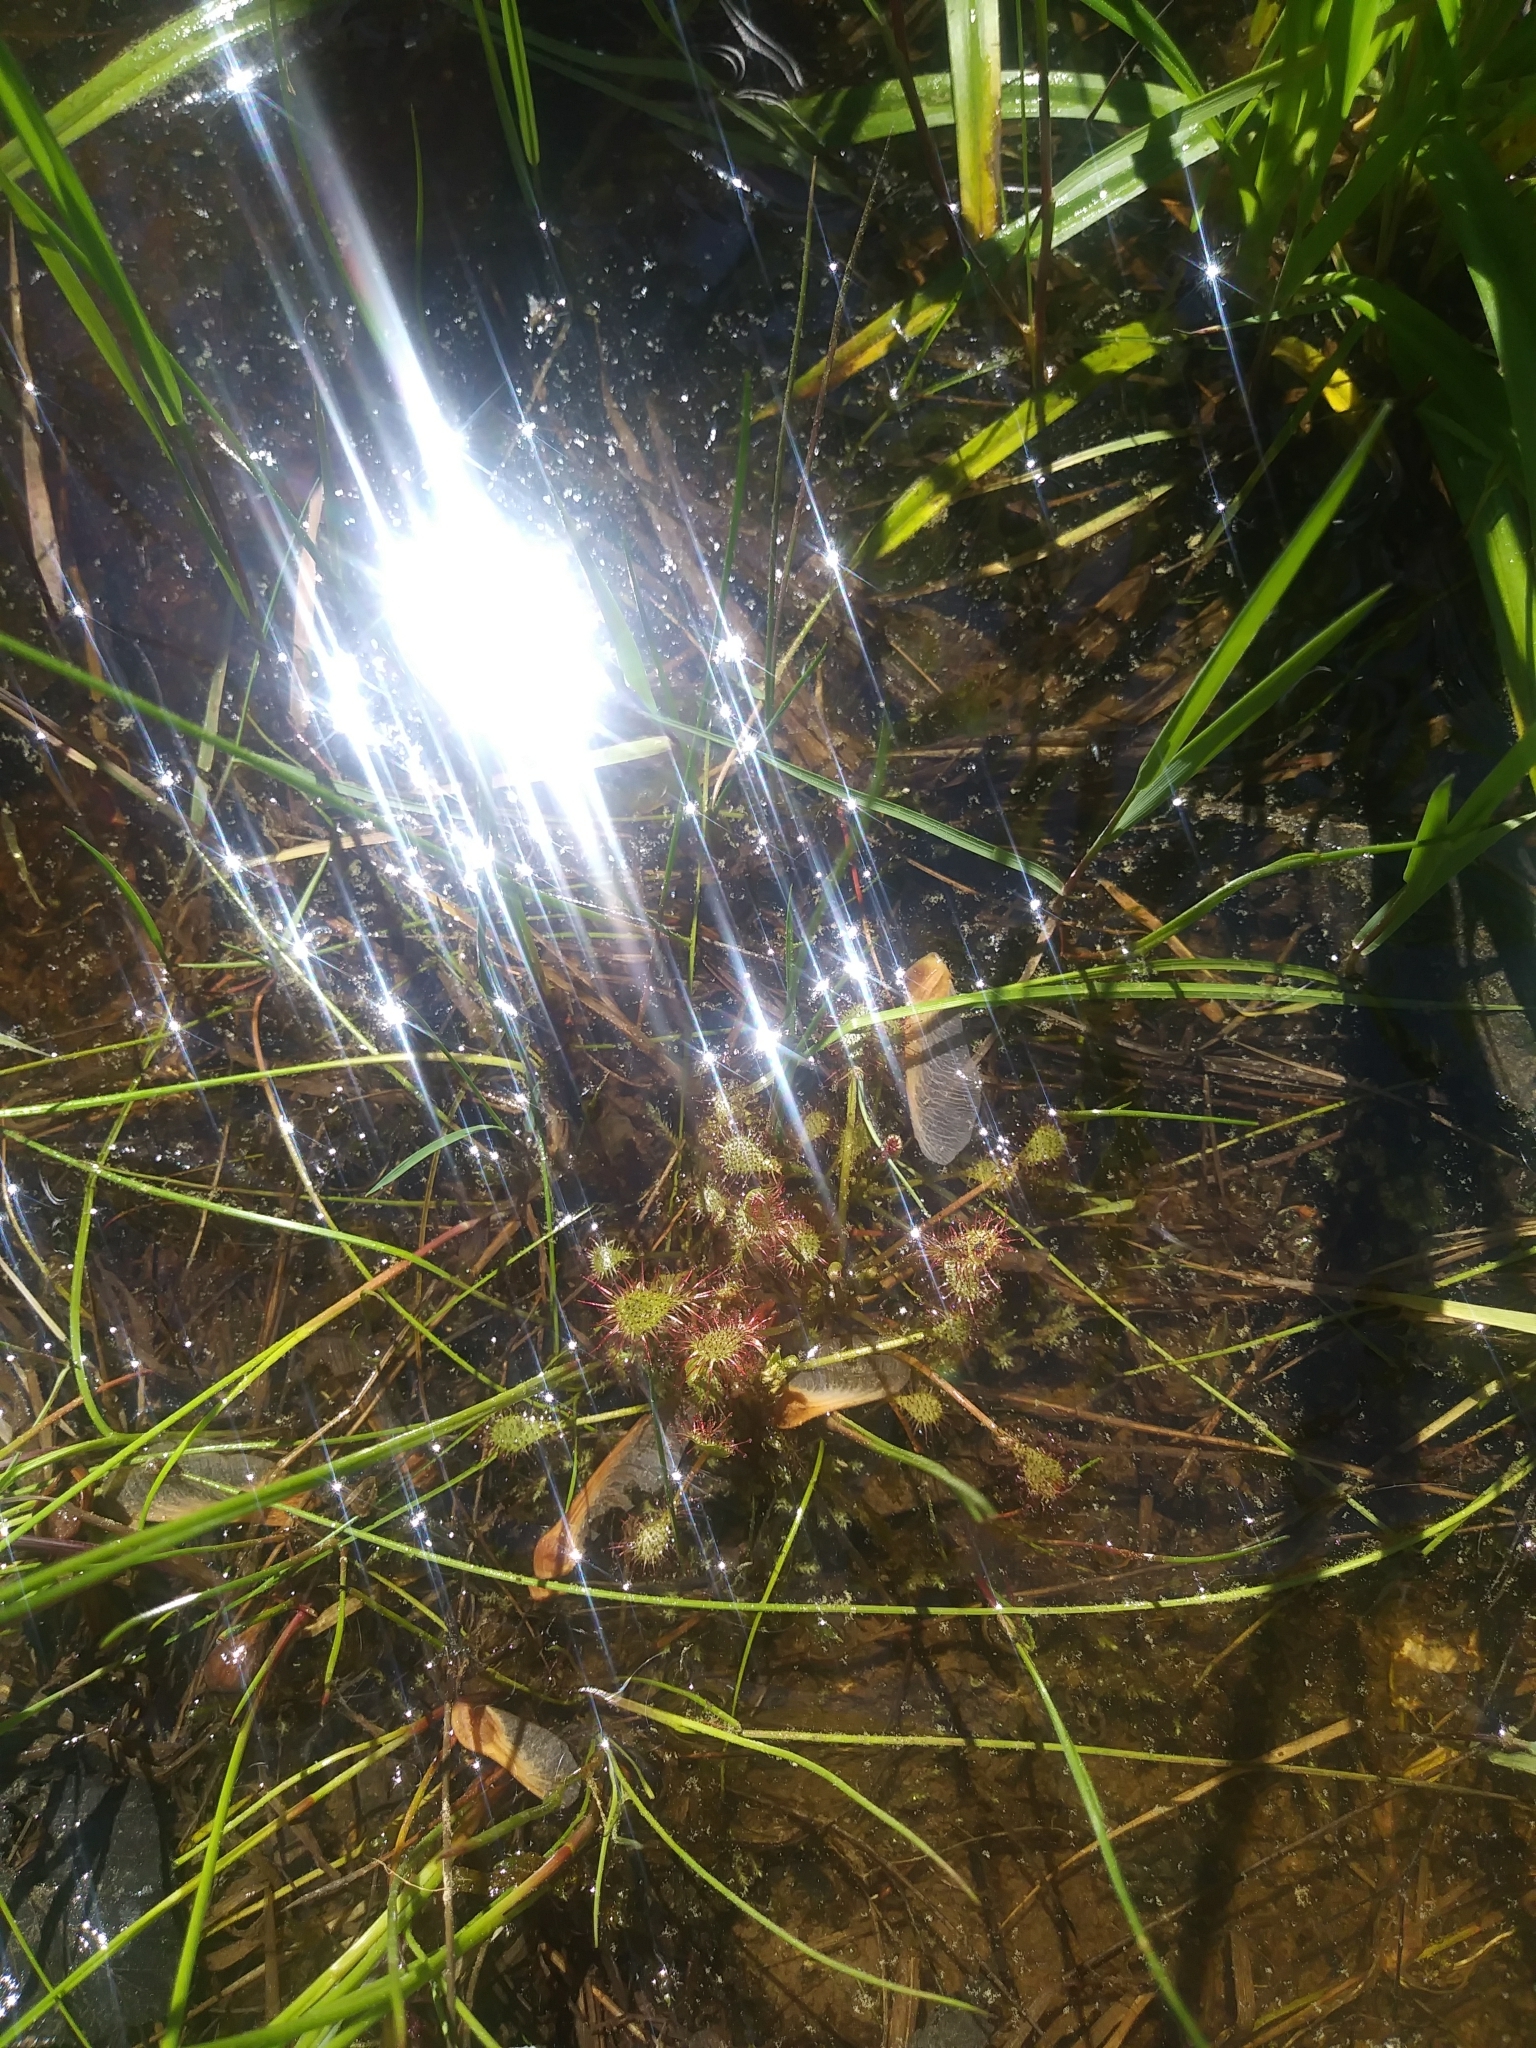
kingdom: Plantae
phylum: Tracheophyta
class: Magnoliopsida
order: Caryophyllales
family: Droseraceae
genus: Drosera
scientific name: Drosera intermedia
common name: Oblong-leaved sundew
